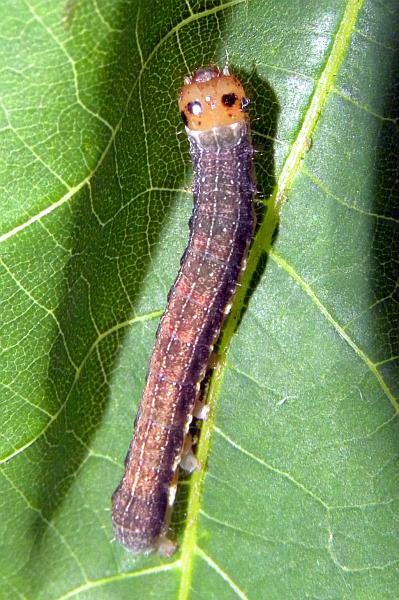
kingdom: Animalia
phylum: Arthropoda
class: Insecta
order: Lepidoptera
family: Noctuidae
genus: Crocigrapha
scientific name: Crocigrapha normani
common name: Norman's quaker
